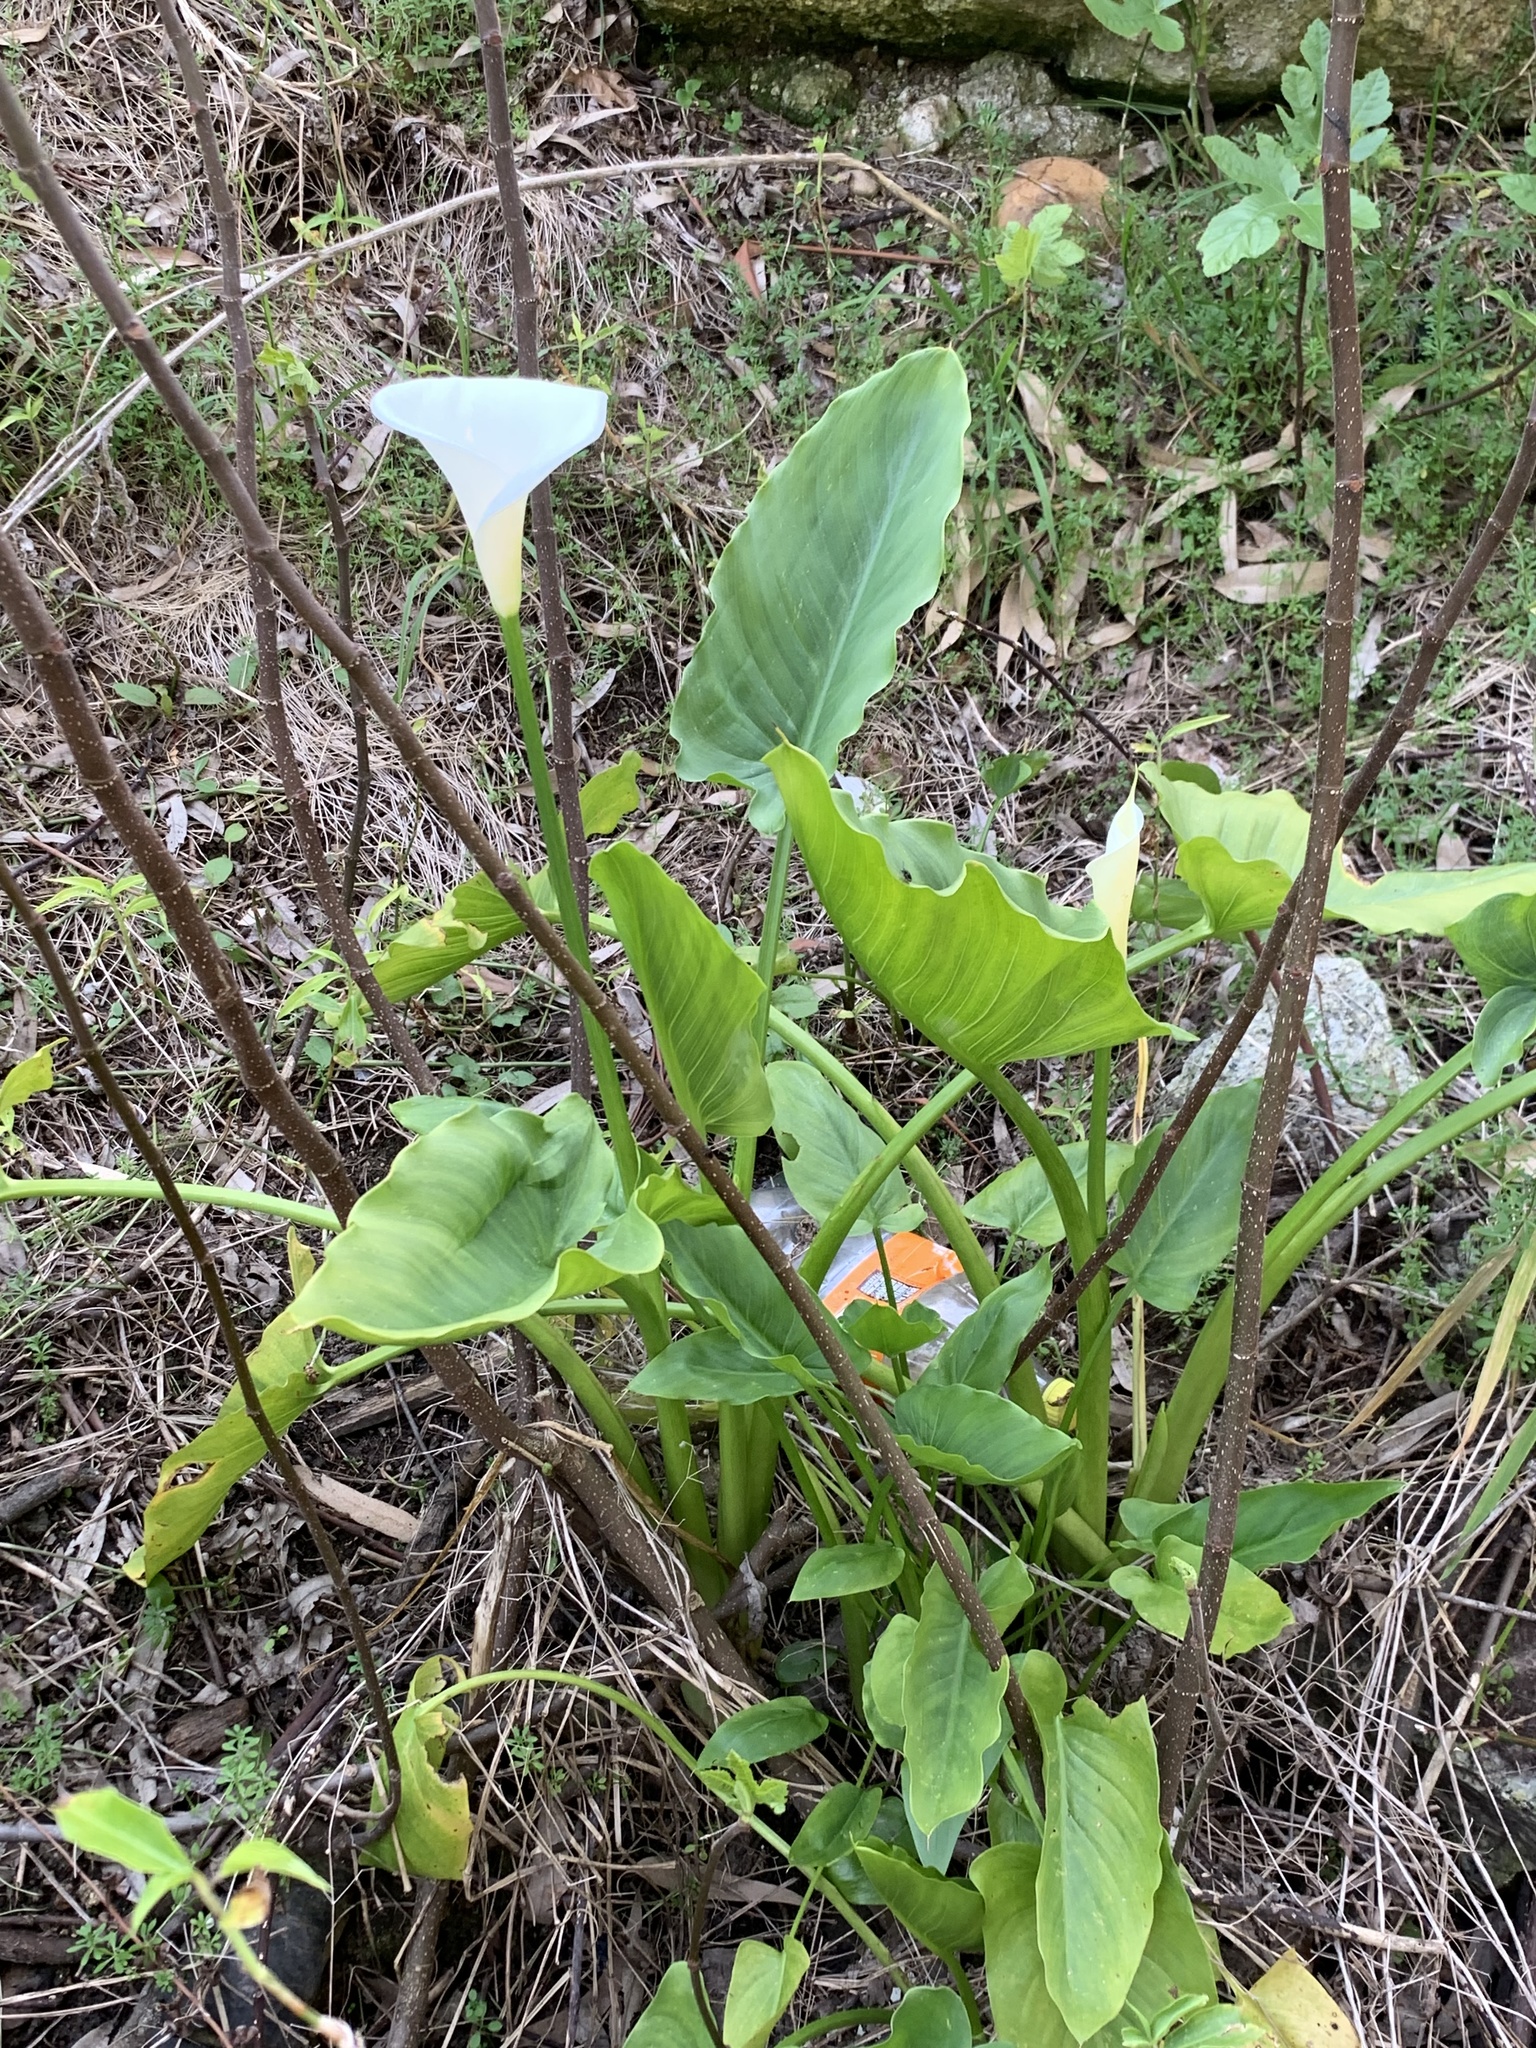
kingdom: Plantae
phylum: Tracheophyta
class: Liliopsida
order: Alismatales
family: Araceae
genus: Zantedeschia
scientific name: Zantedeschia aethiopica
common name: Altar-lily
